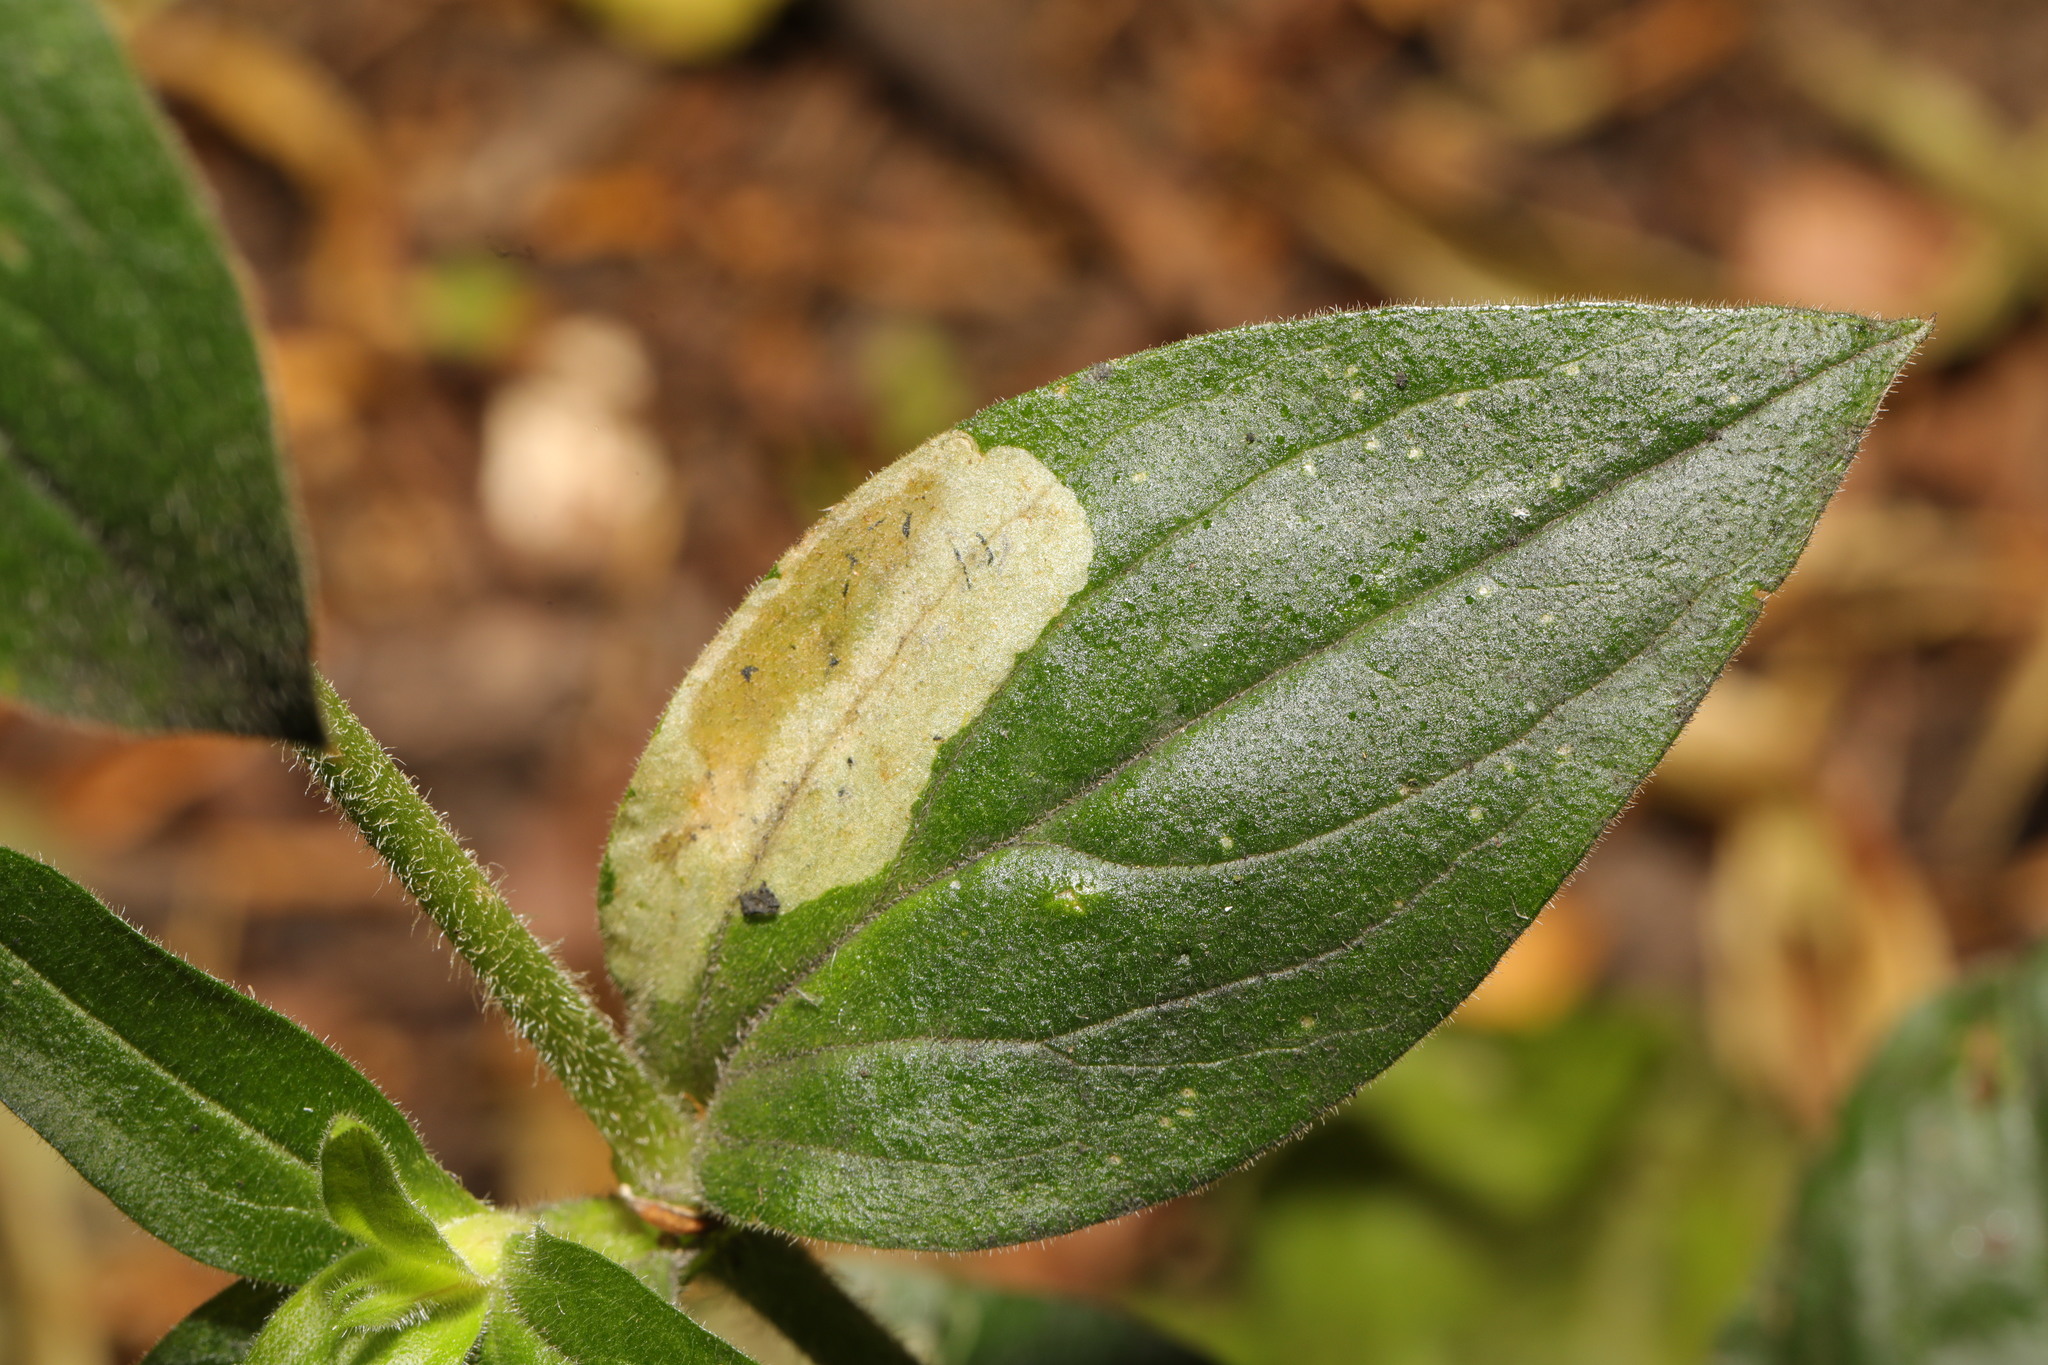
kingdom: Animalia
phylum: Arthropoda
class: Insecta
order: Diptera
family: Agromyzidae
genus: Amauromyza
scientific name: Amauromyza flavifrons
